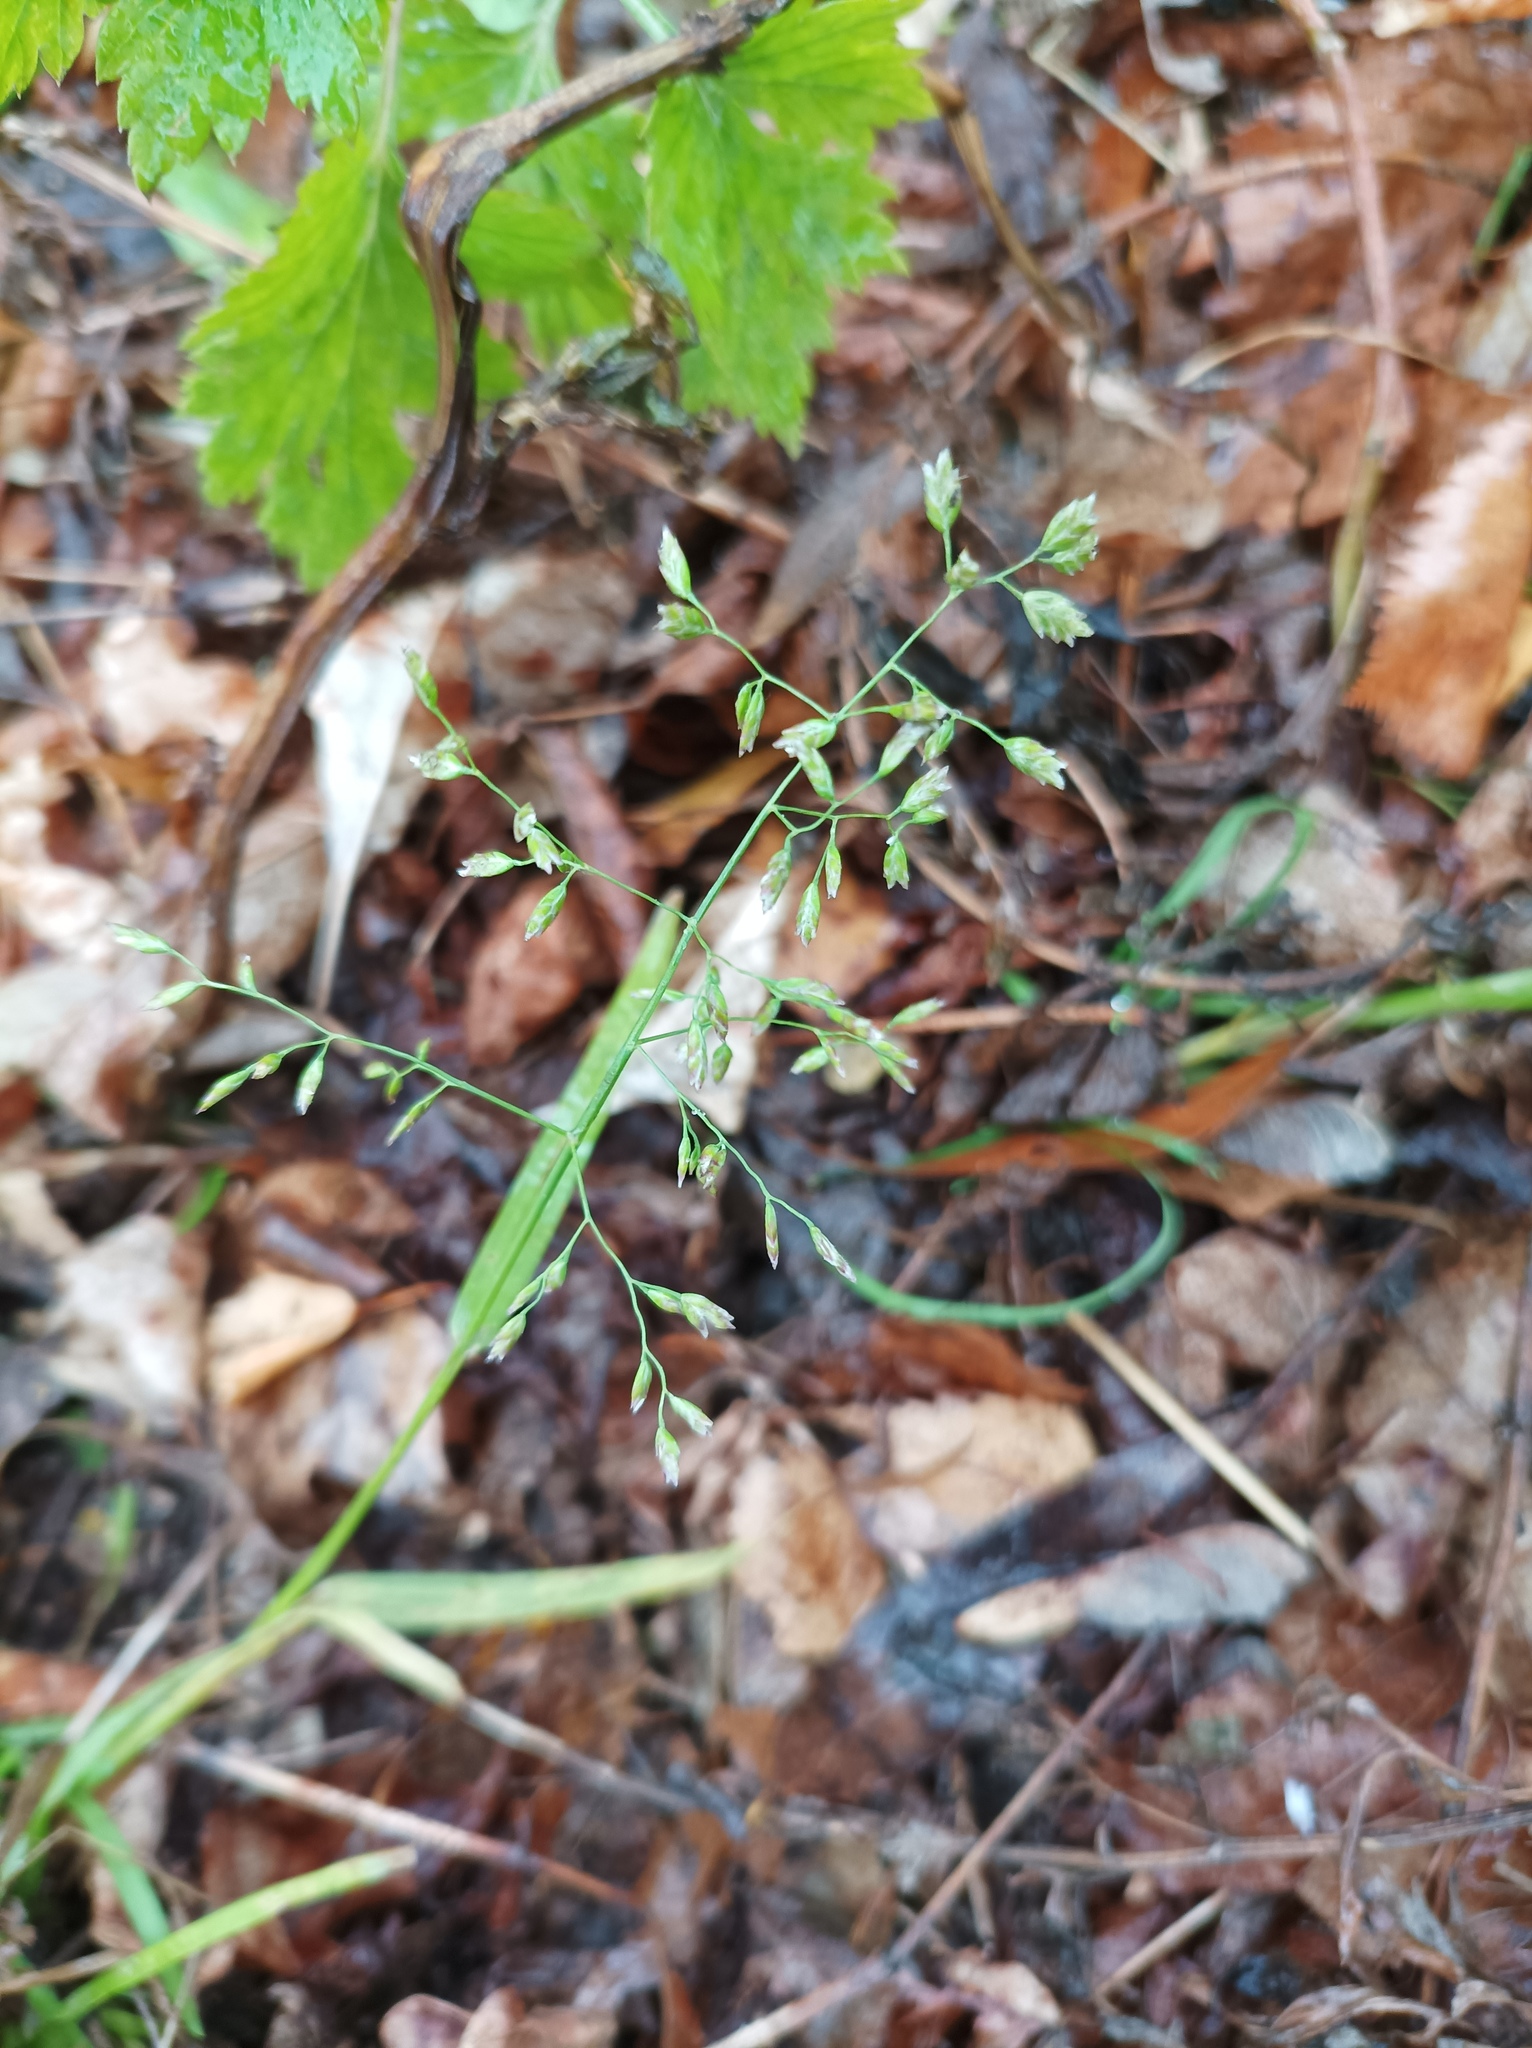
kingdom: Plantae
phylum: Tracheophyta
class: Liliopsida
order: Poales
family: Poaceae
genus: Poa
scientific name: Poa annua
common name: Annual bluegrass
